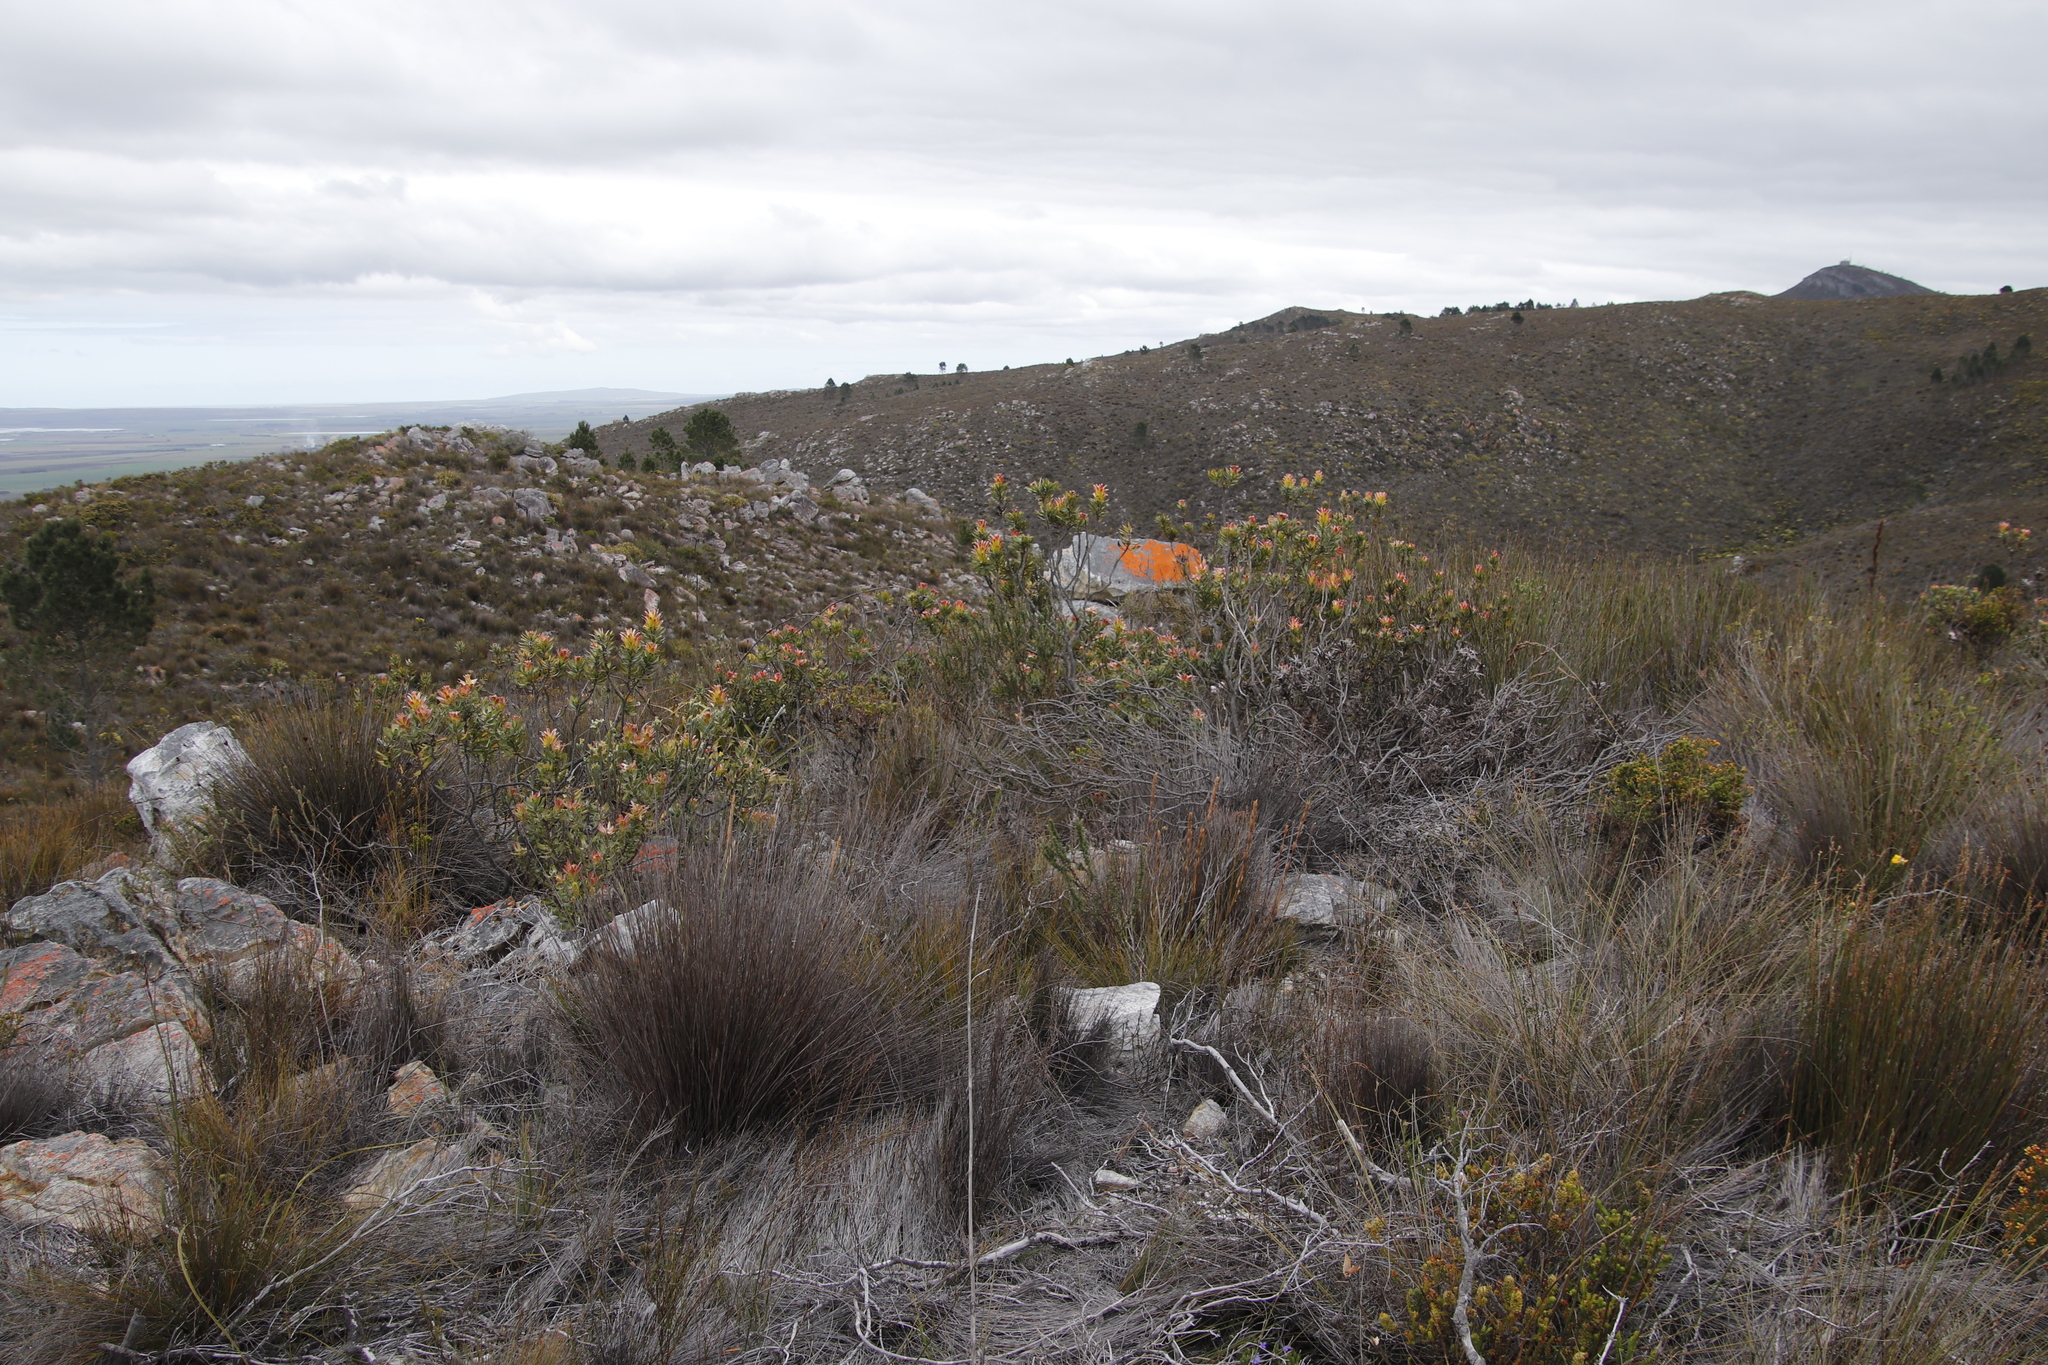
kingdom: Plantae
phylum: Tracheophyta
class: Magnoliopsida
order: Proteales
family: Proteaceae
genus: Mimetes
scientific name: Mimetes cucullatus
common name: Common pagoda
